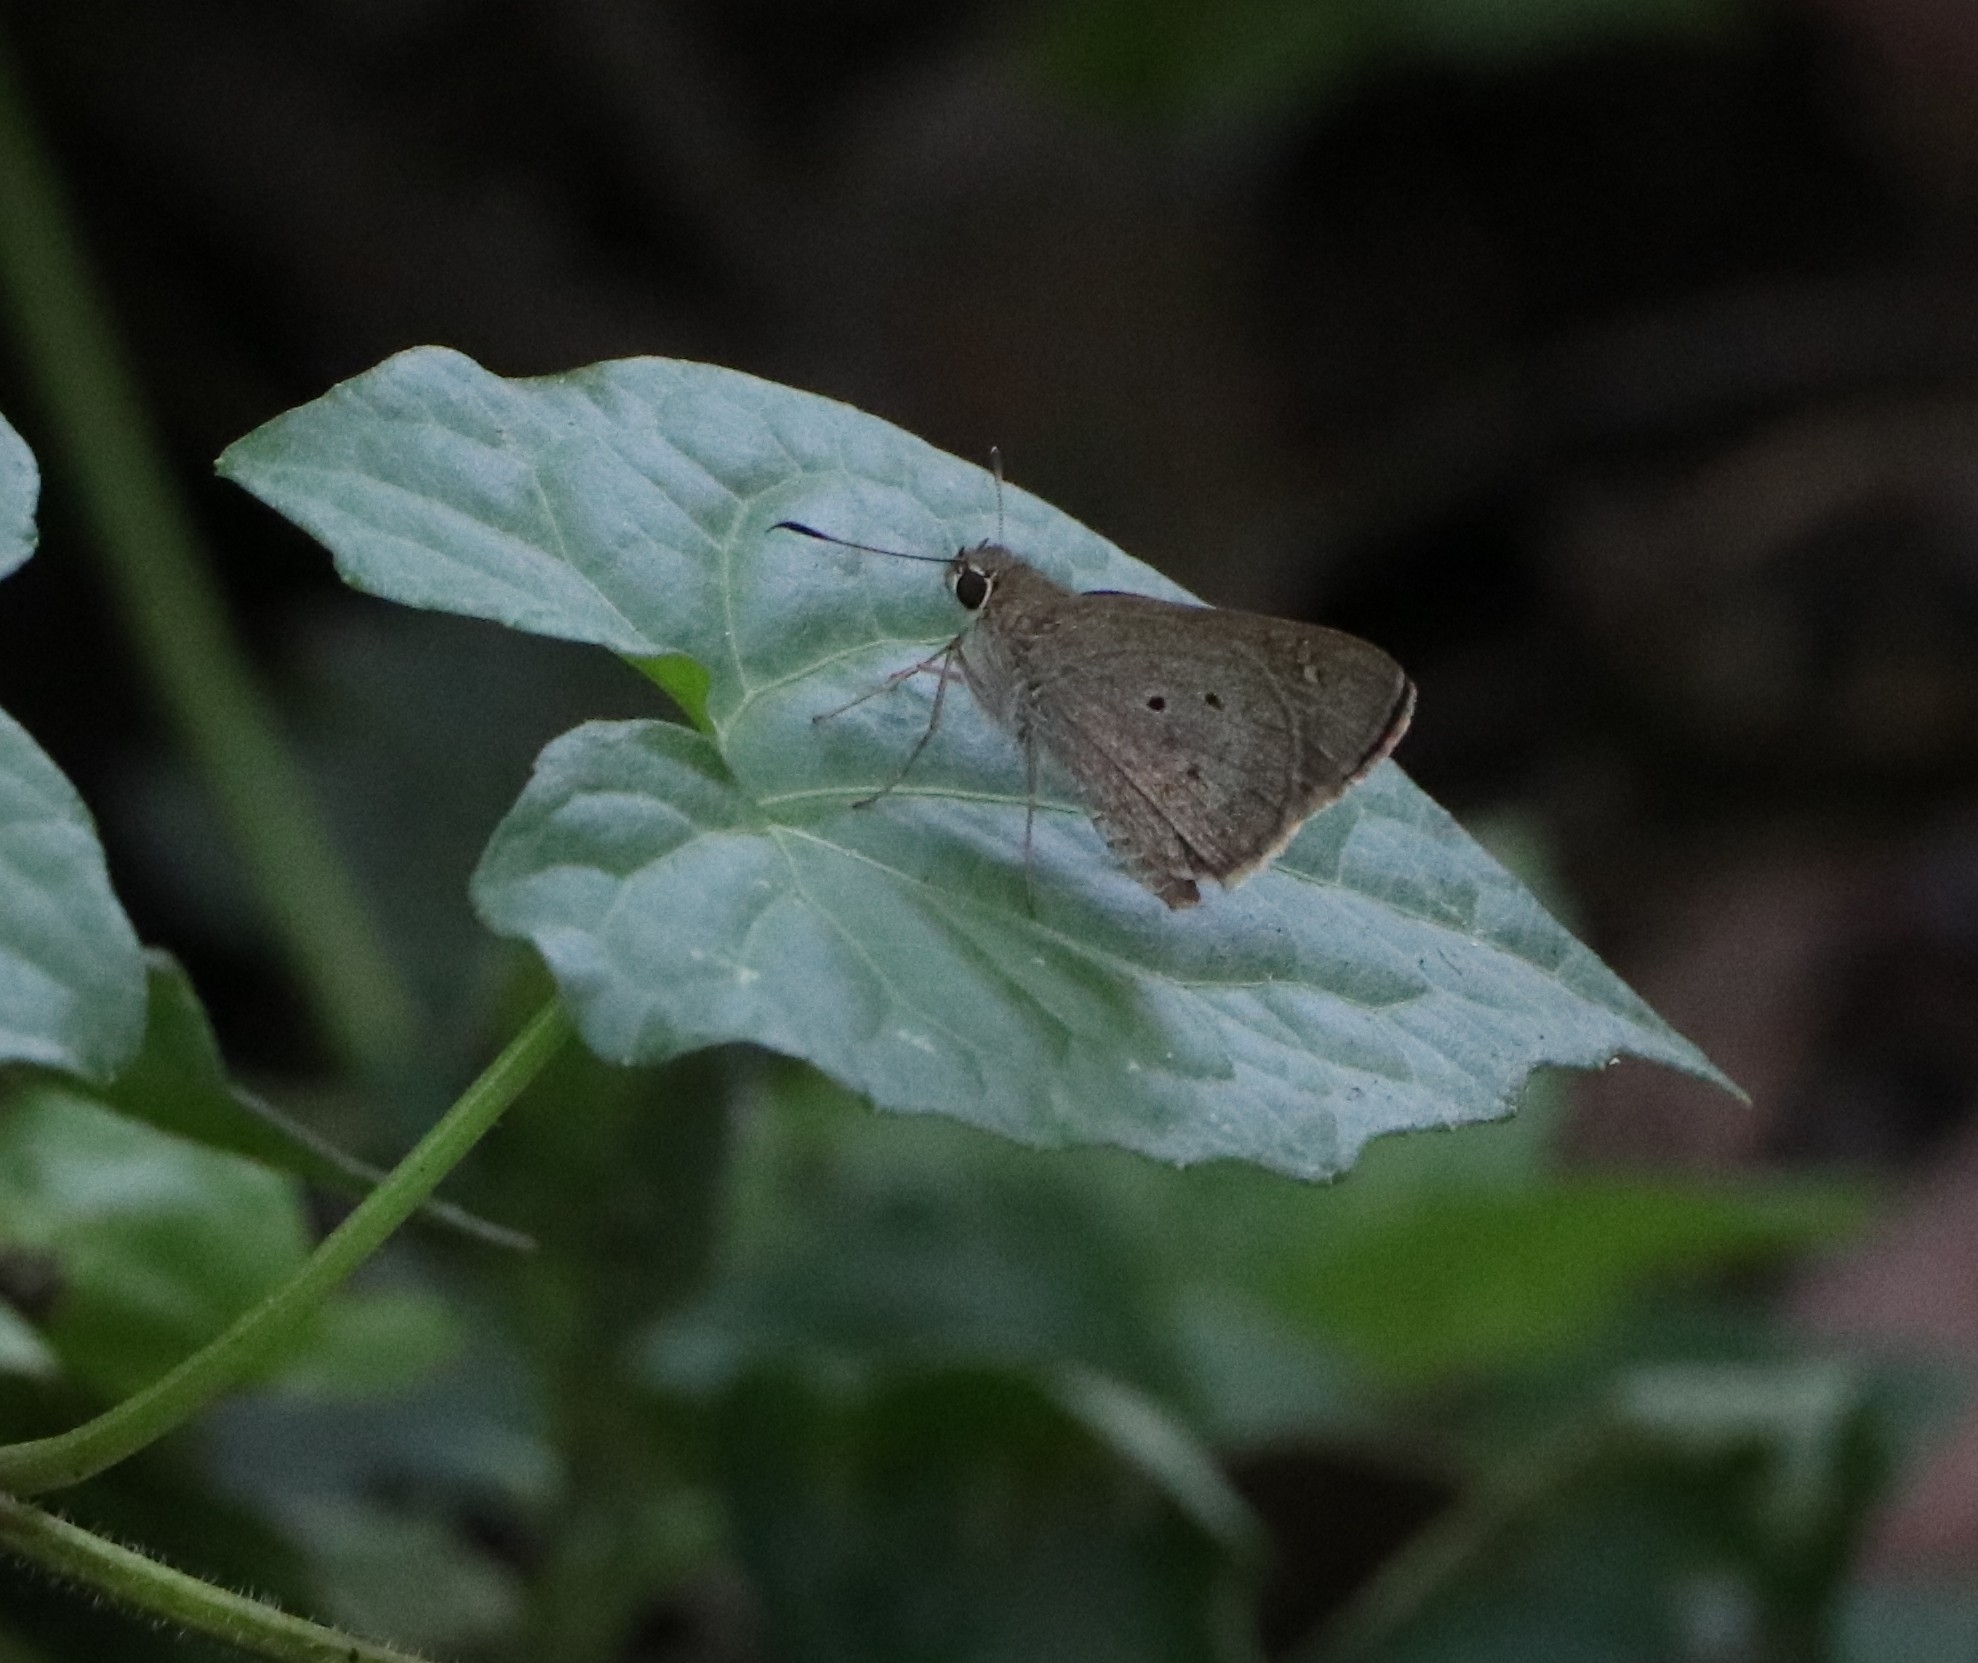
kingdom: Animalia
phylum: Arthropoda
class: Insecta
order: Lepidoptera
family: Hesperiidae
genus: Suastus
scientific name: Suastus gremius
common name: Indian palm bob
